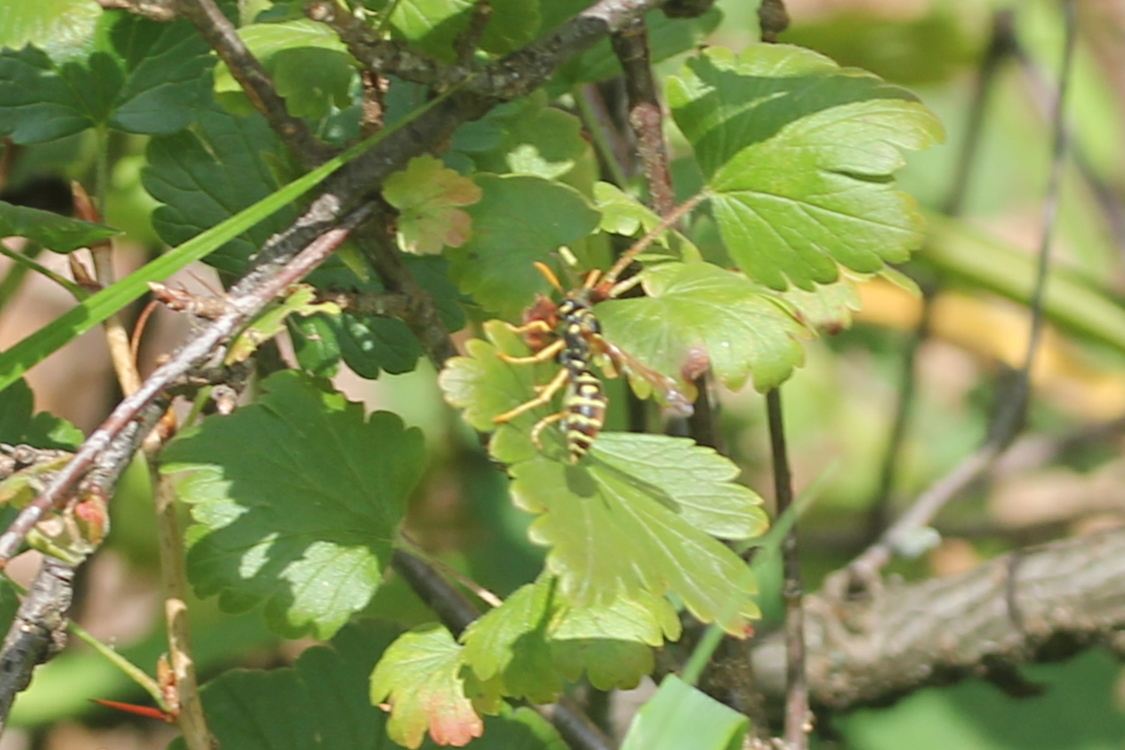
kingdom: Animalia
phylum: Arthropoda
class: Insecta
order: Hymenoptera
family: Eumenidae
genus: Polistes
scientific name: Polistes dominula
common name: Paper wasp
